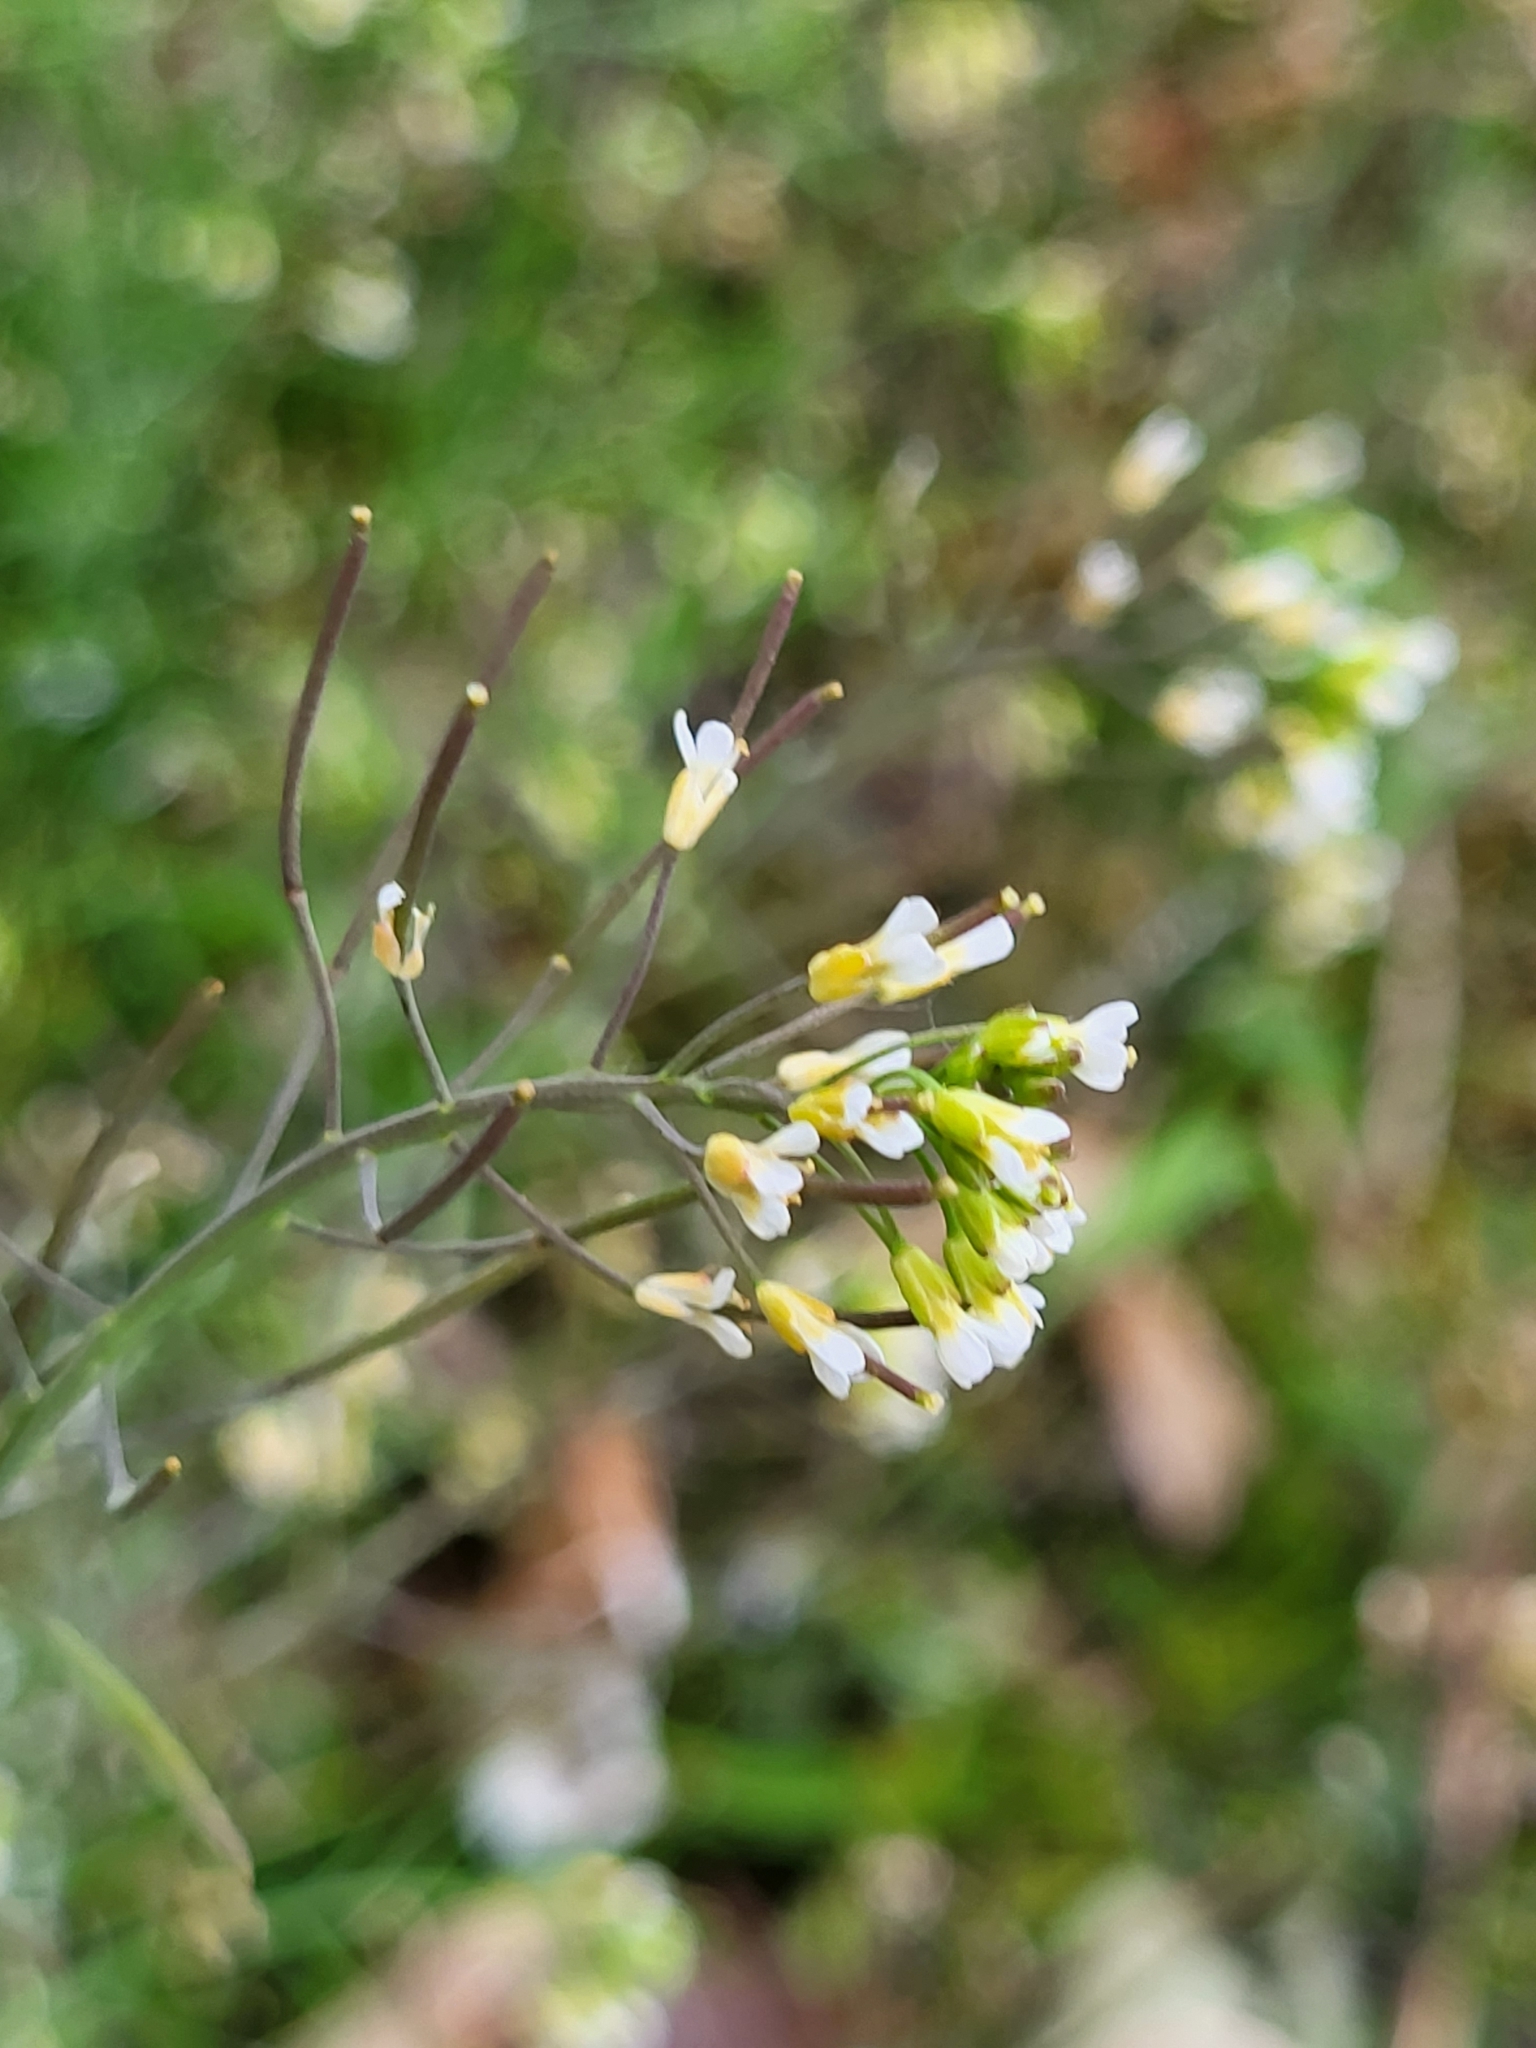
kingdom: Plantae
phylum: Tracheophyta
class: Magnoliopsida
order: Brassicales
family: Brassicaceae
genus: Arabidopsis
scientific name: Arabidopsis thaliana
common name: Thale cress
